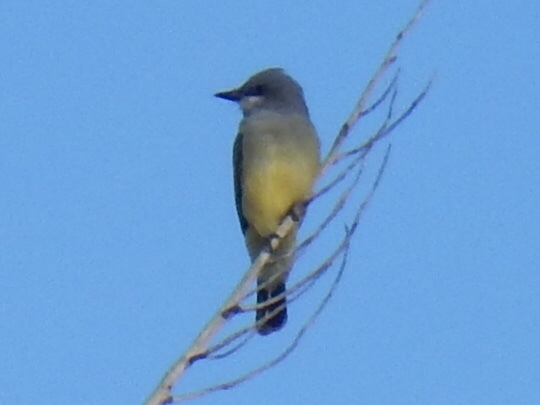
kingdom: Animalia
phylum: Chordata
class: Aves
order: Passeriformes
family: Tyrannidae
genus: Tyrannus
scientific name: Tyrannus vociferans
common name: Cassin's kingbird
